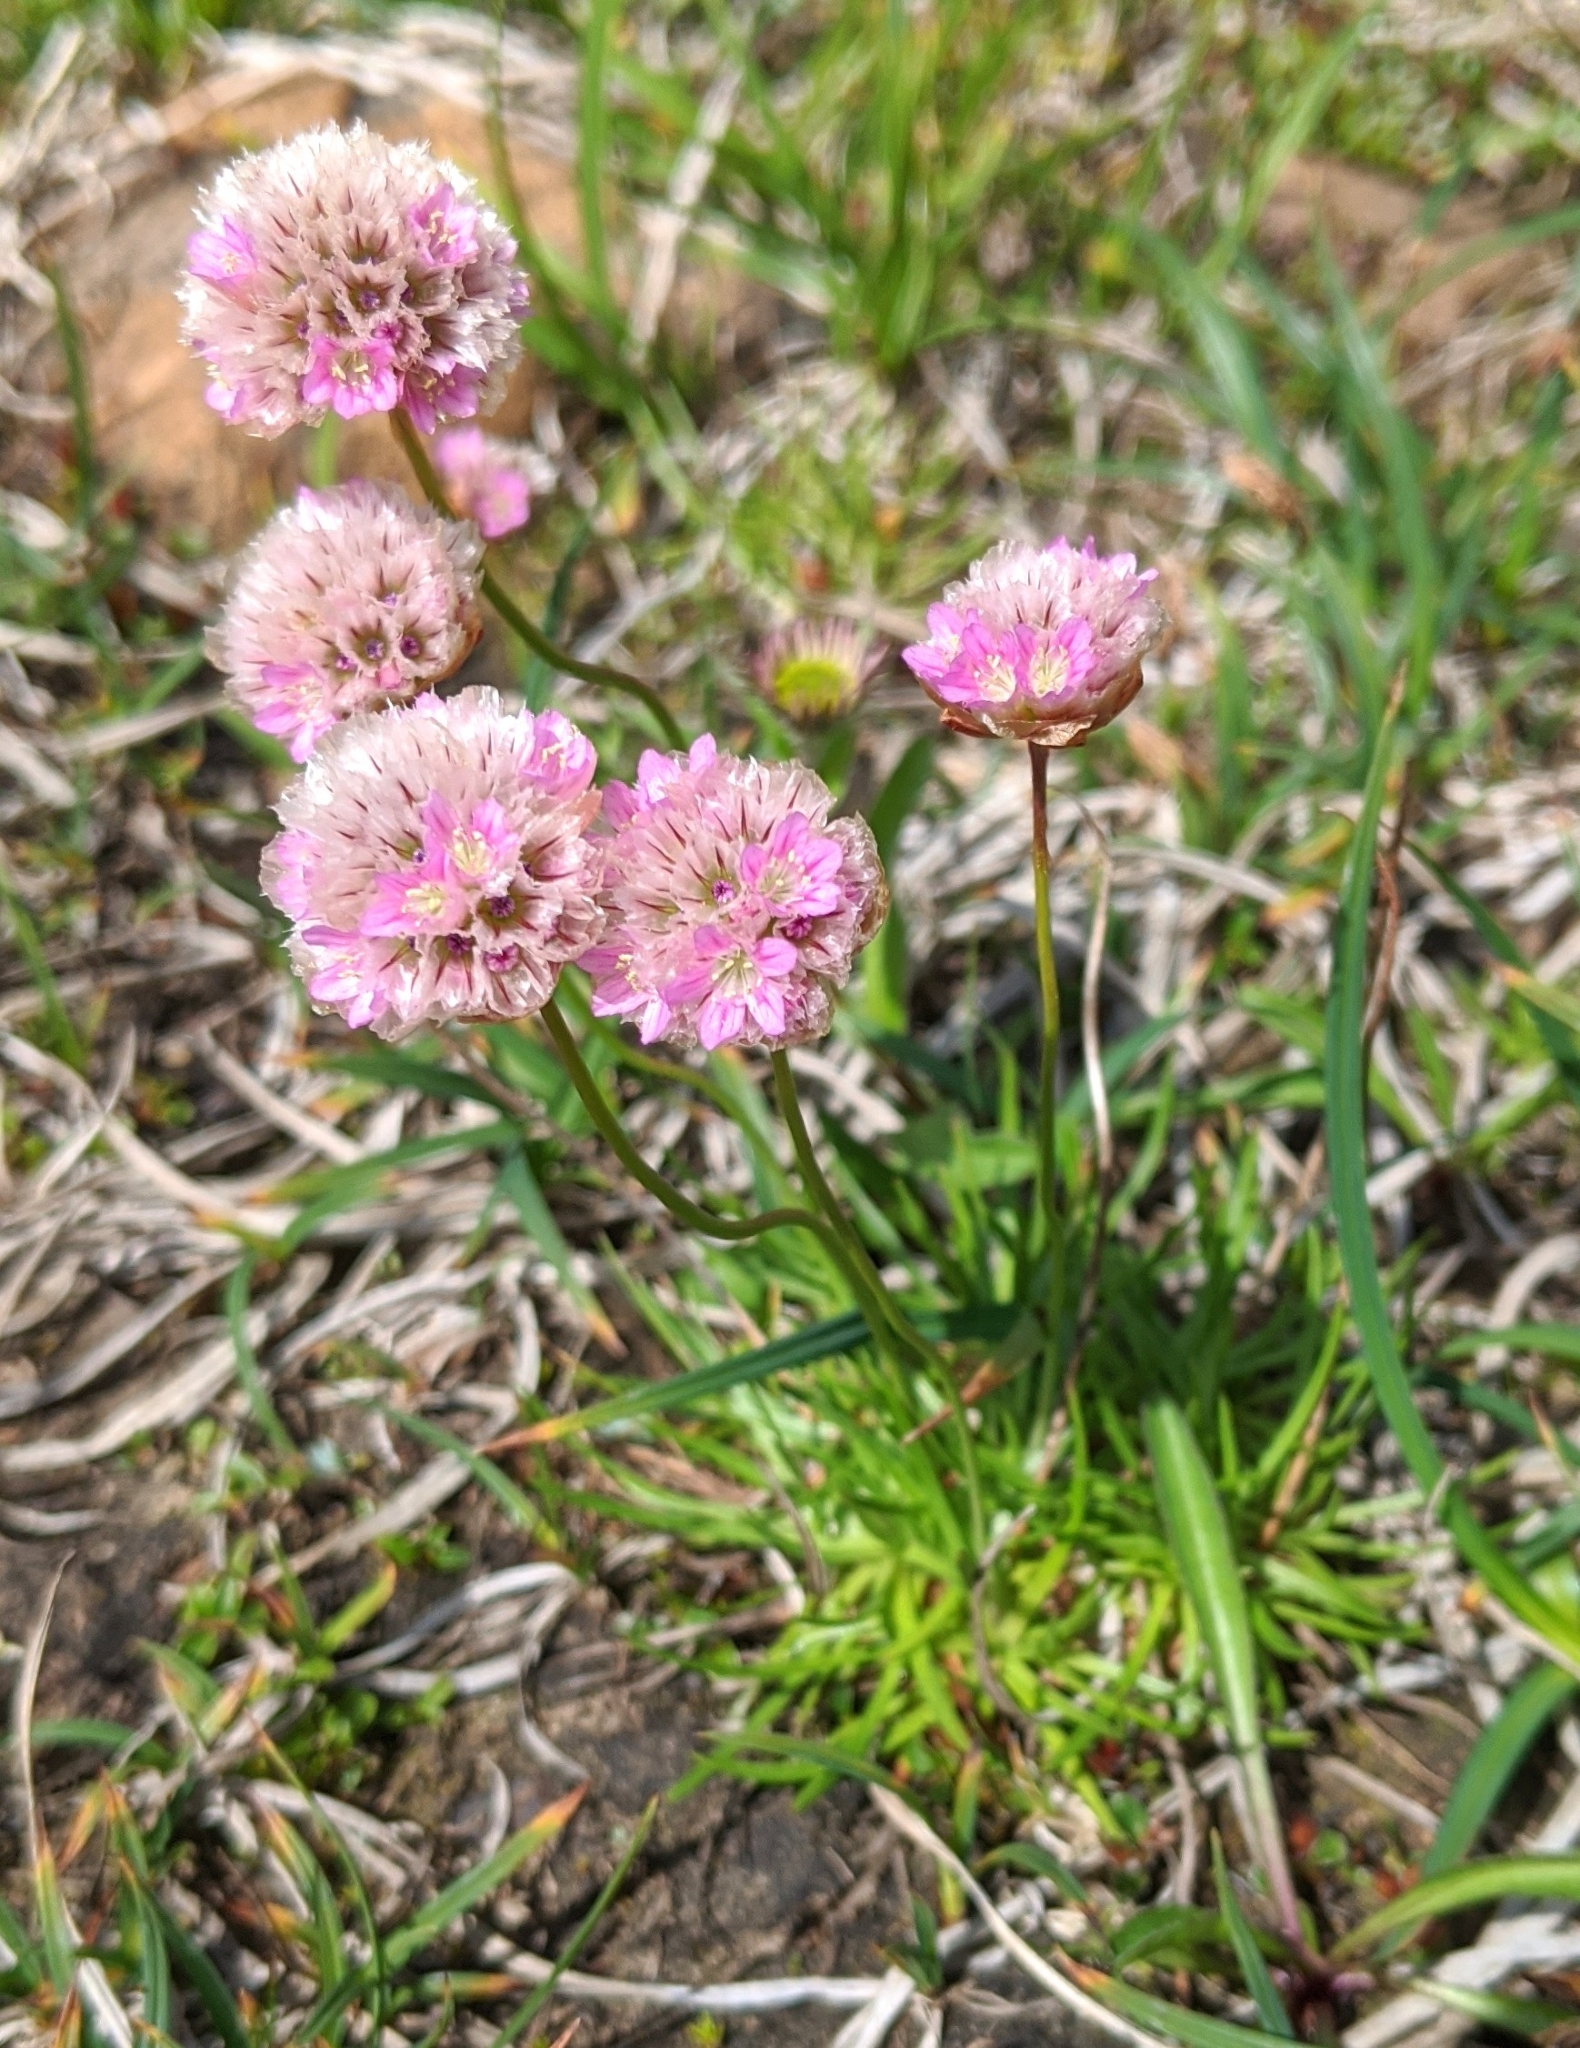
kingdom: Plantae
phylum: Tracheophyta
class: Magnoliopsida
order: Caryophyllales
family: Plumbaginaceae
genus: Armeria
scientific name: Armeria maritima
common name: Thrift
